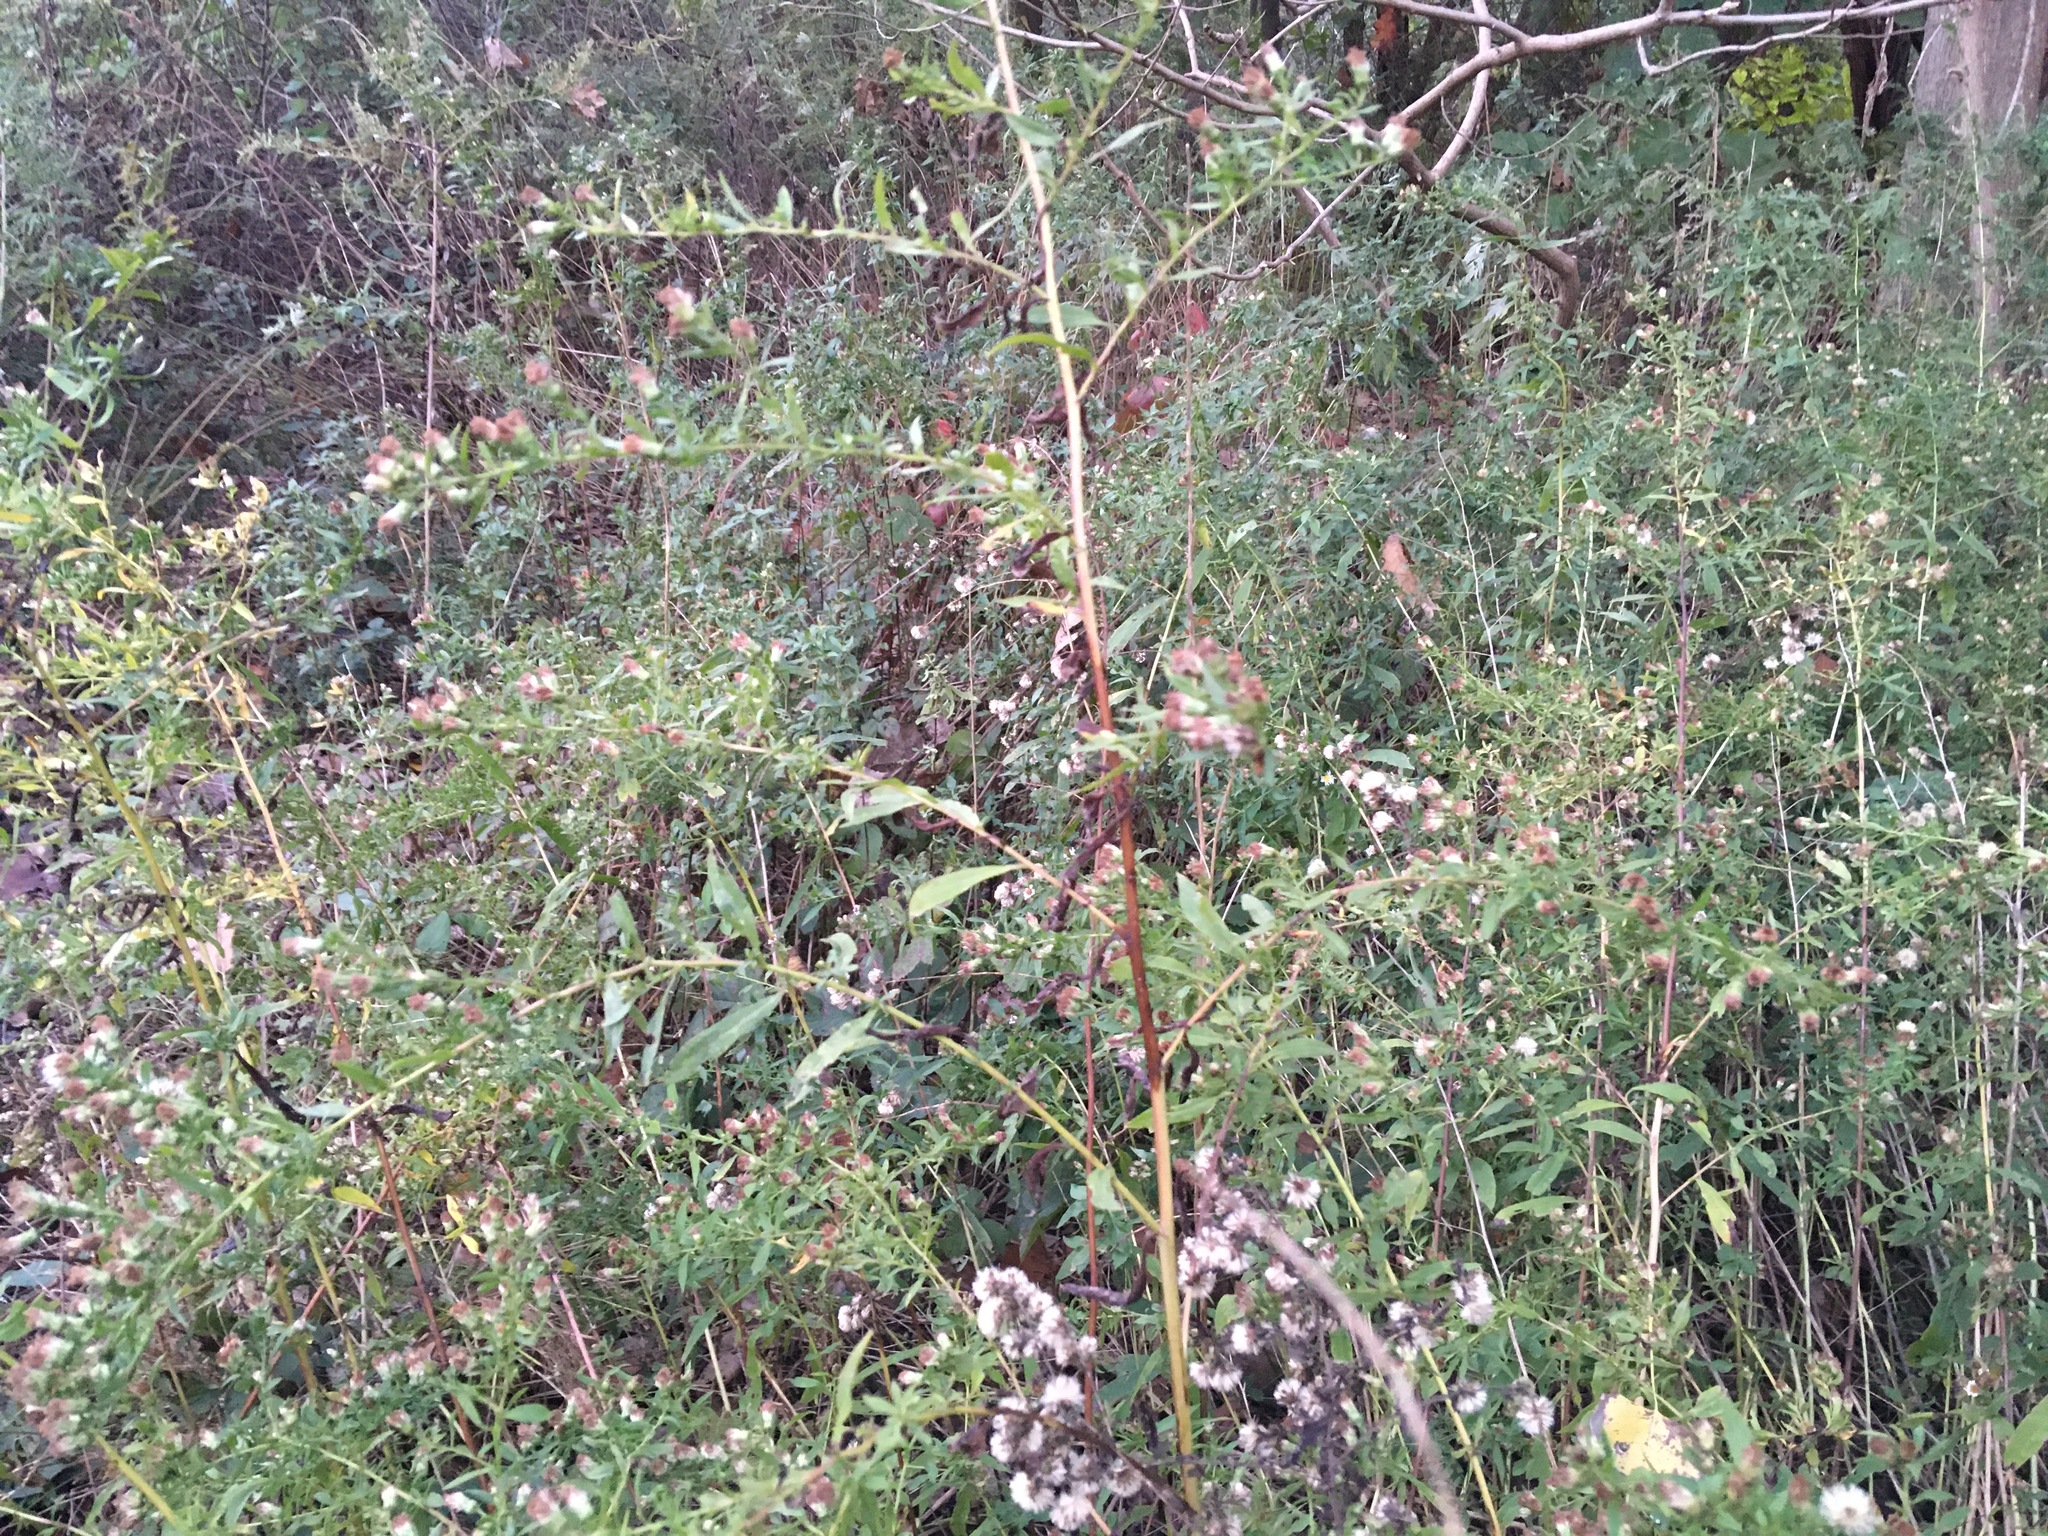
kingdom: Plantae
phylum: Tracheophyta
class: Magnoliopsida
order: Asterales
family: Asteraceae
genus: Artemisia
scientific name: Artemisia vulgaris
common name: Mugwort
